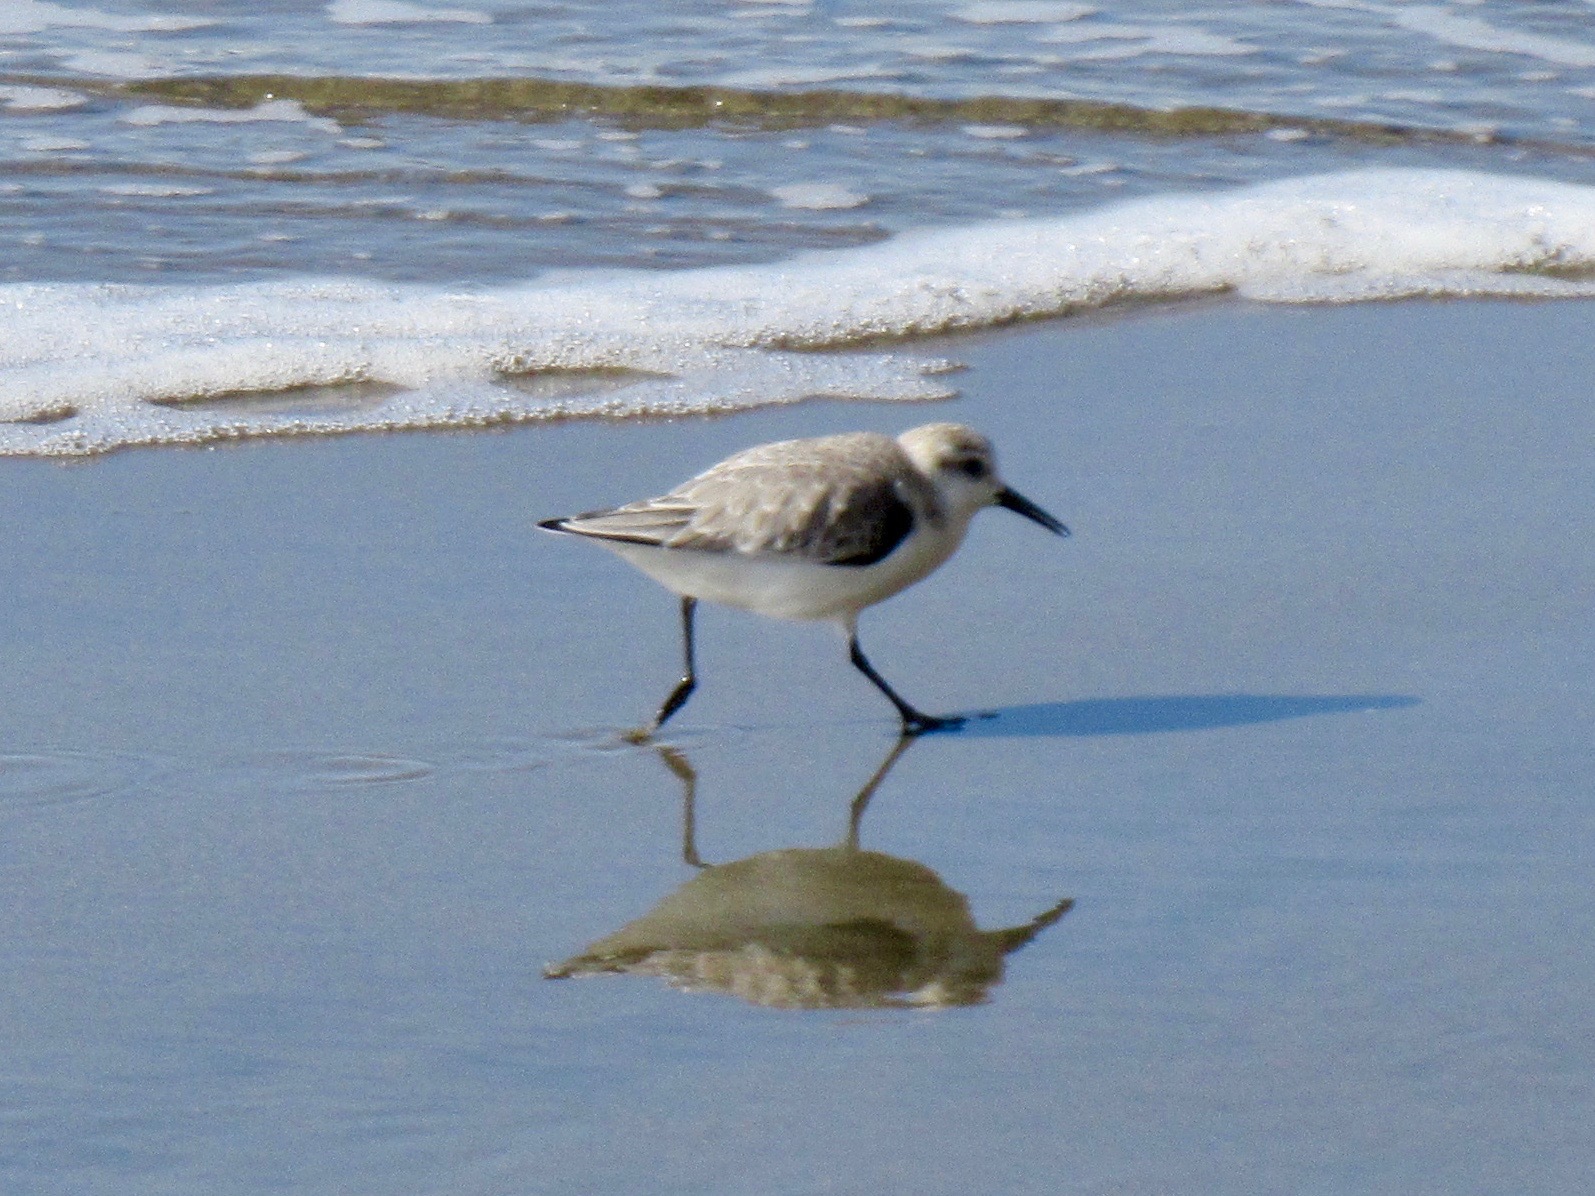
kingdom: Animalia
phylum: Chordata
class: Aves
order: Charadriiformes
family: Scolopacidae
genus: Calidris
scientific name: Calidris alba
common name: Sanderling
